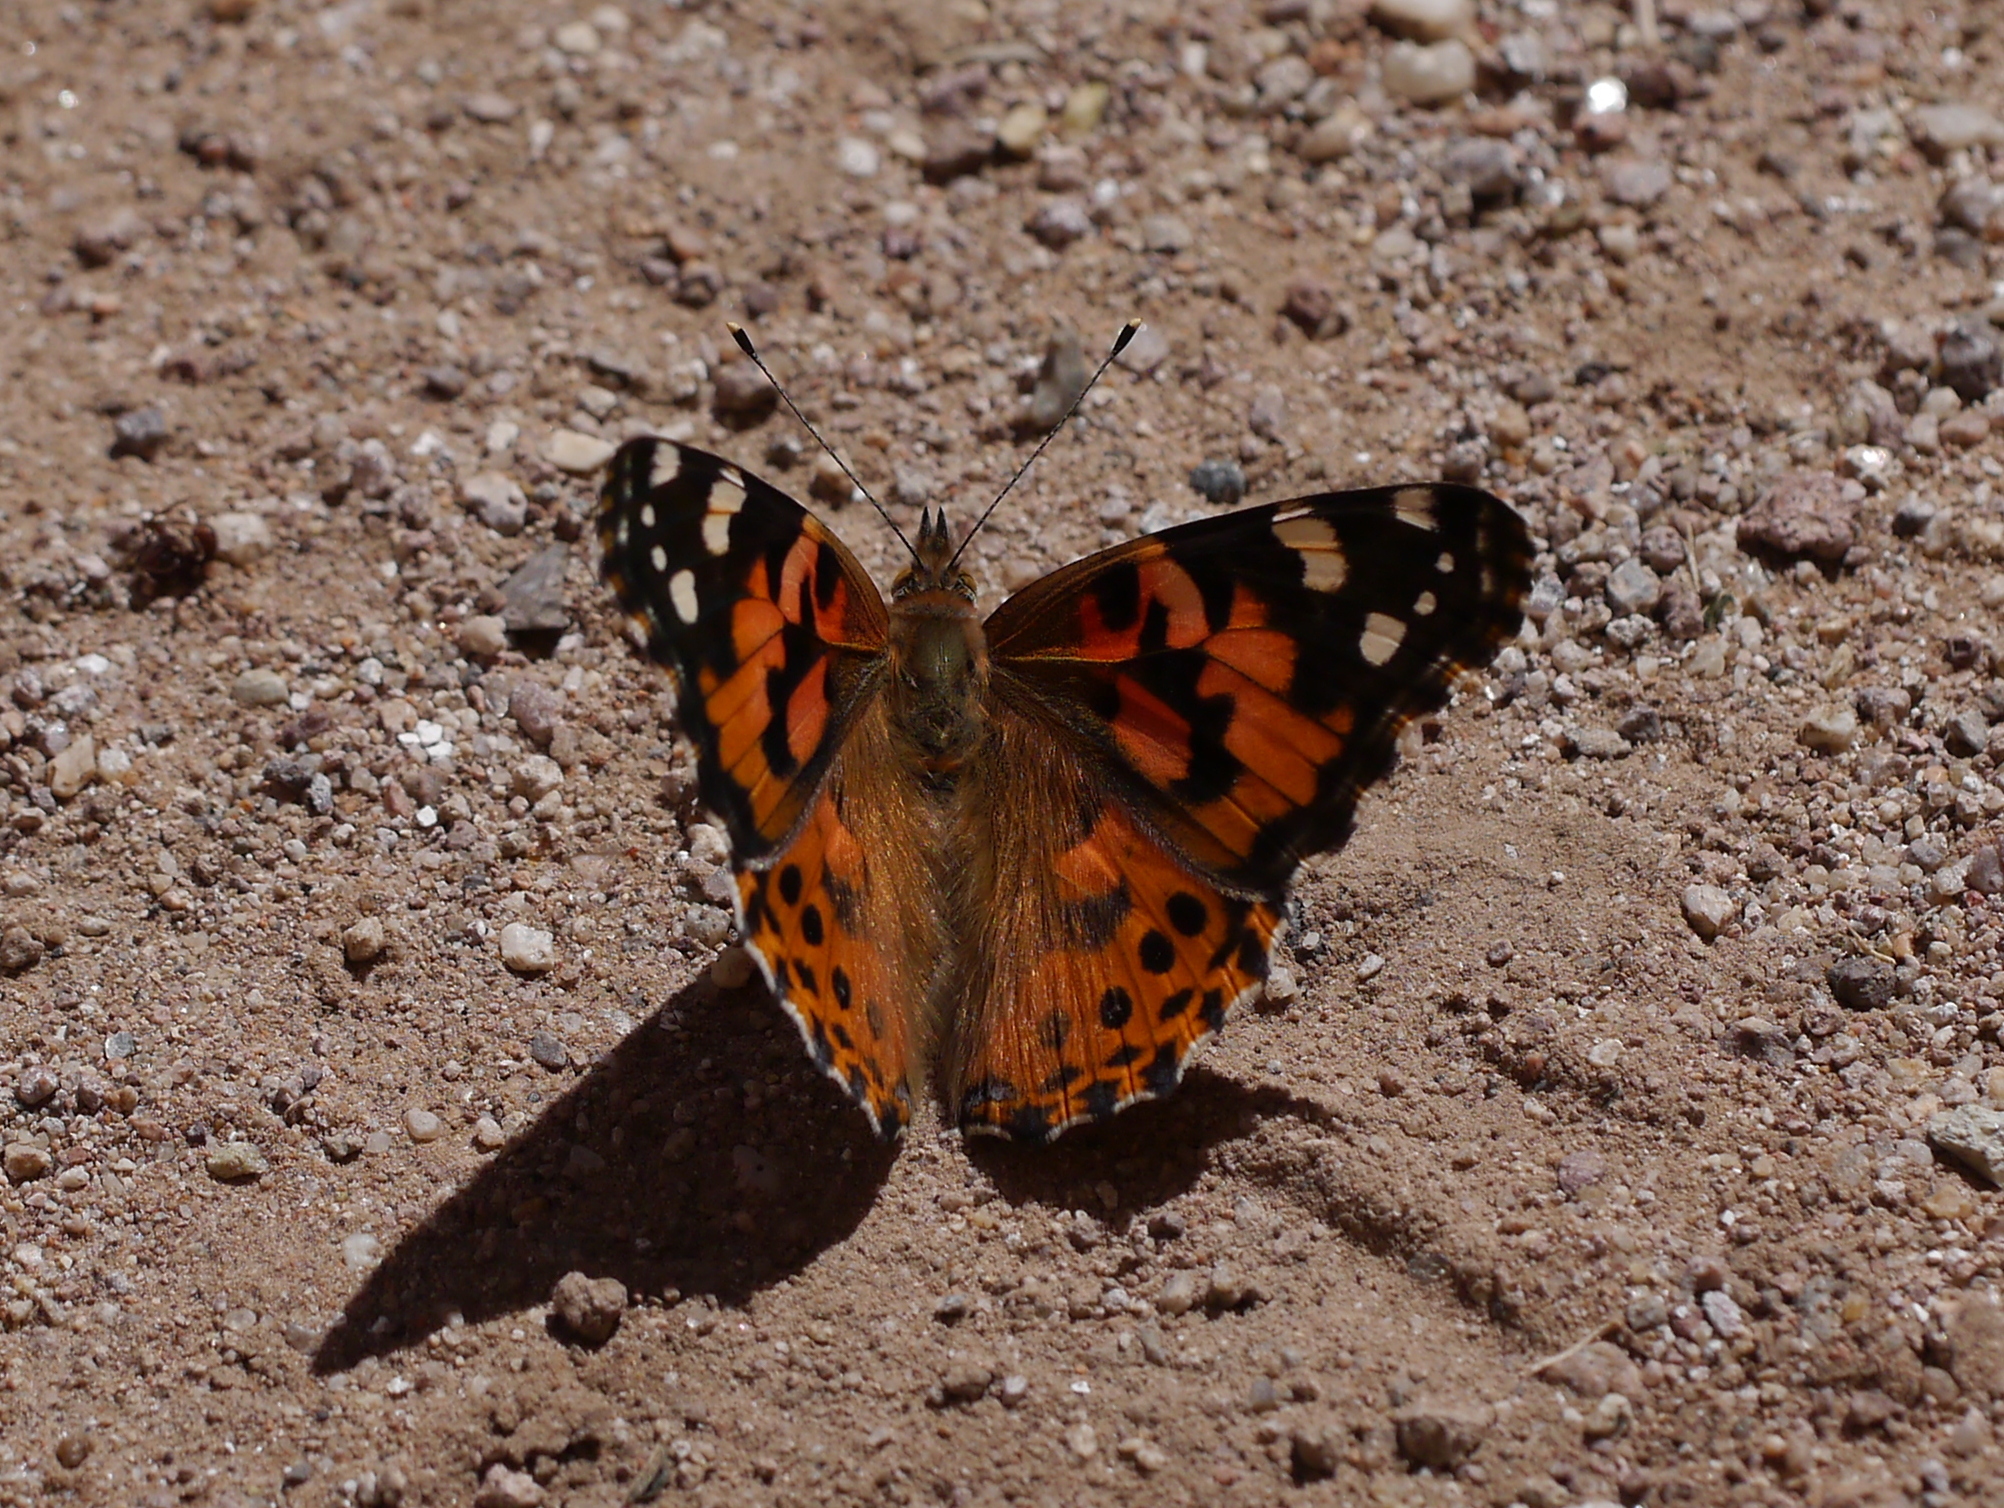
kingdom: Animalia
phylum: Arthropoda
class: Insecta
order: Lepidoptera
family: Nymphalidae
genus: Vanessa
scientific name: Vanessa cardui
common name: Painted lady
